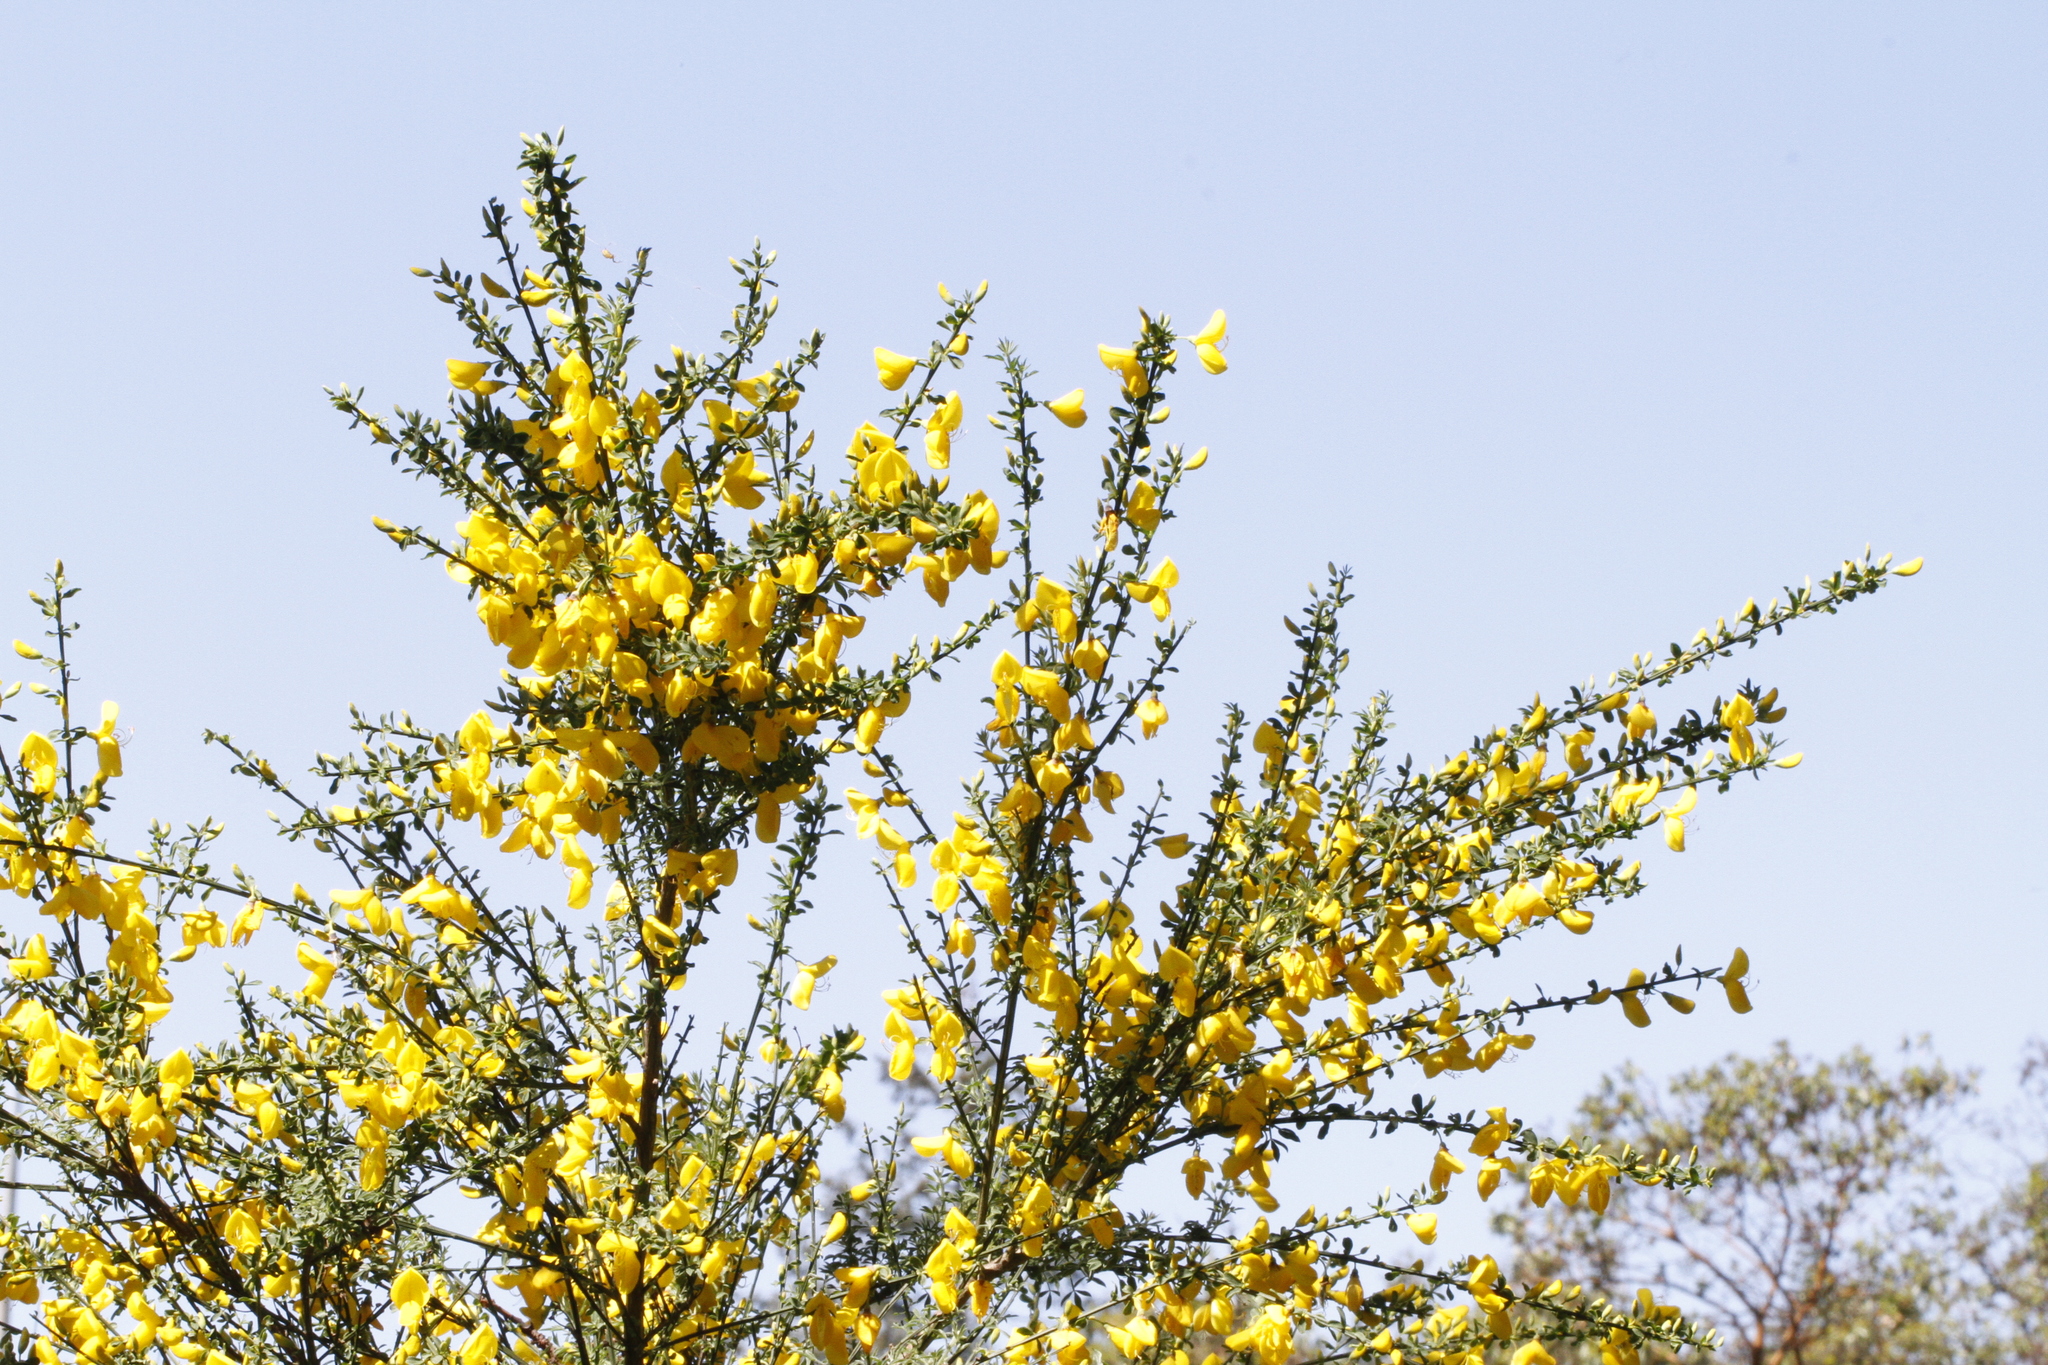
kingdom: Plantae
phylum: Tracheophyta
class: Magnoliopsida
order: Fabales
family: Fabaceae
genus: Cytisus
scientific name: Cytisus scoparius
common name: Scotch broom
